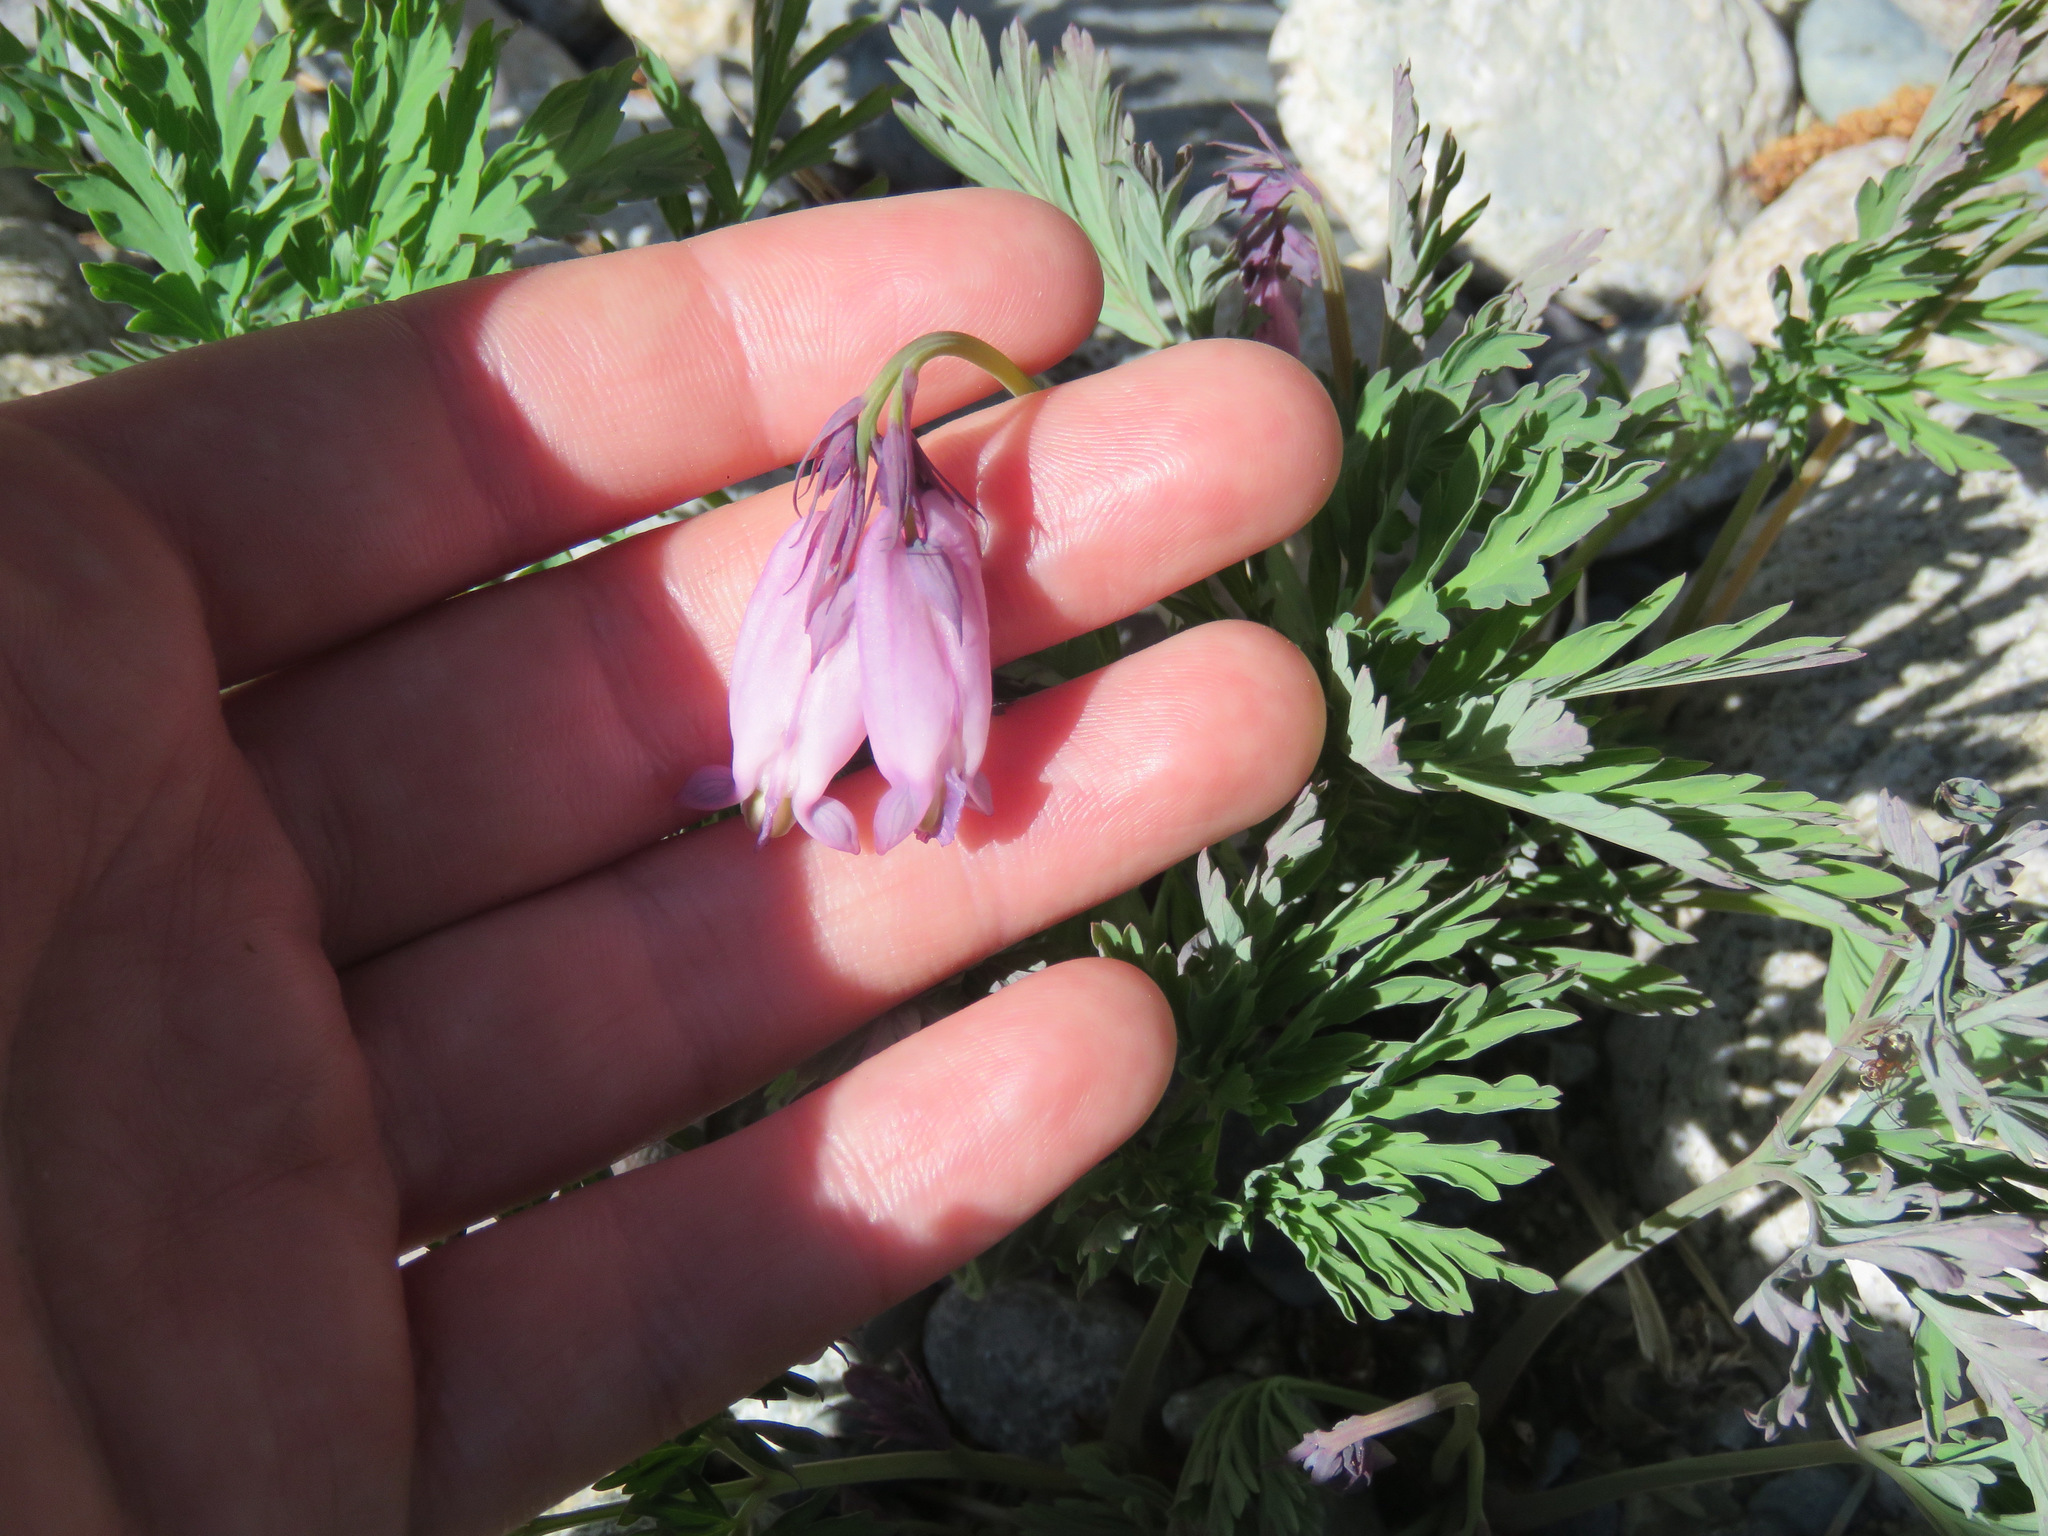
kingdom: Plantae
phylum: Tracheophyta
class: Magnoliopsida
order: Ranunculales
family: Papaveraceae
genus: Dicentra
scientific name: Dicentra formosa
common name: Bleeding-heart
